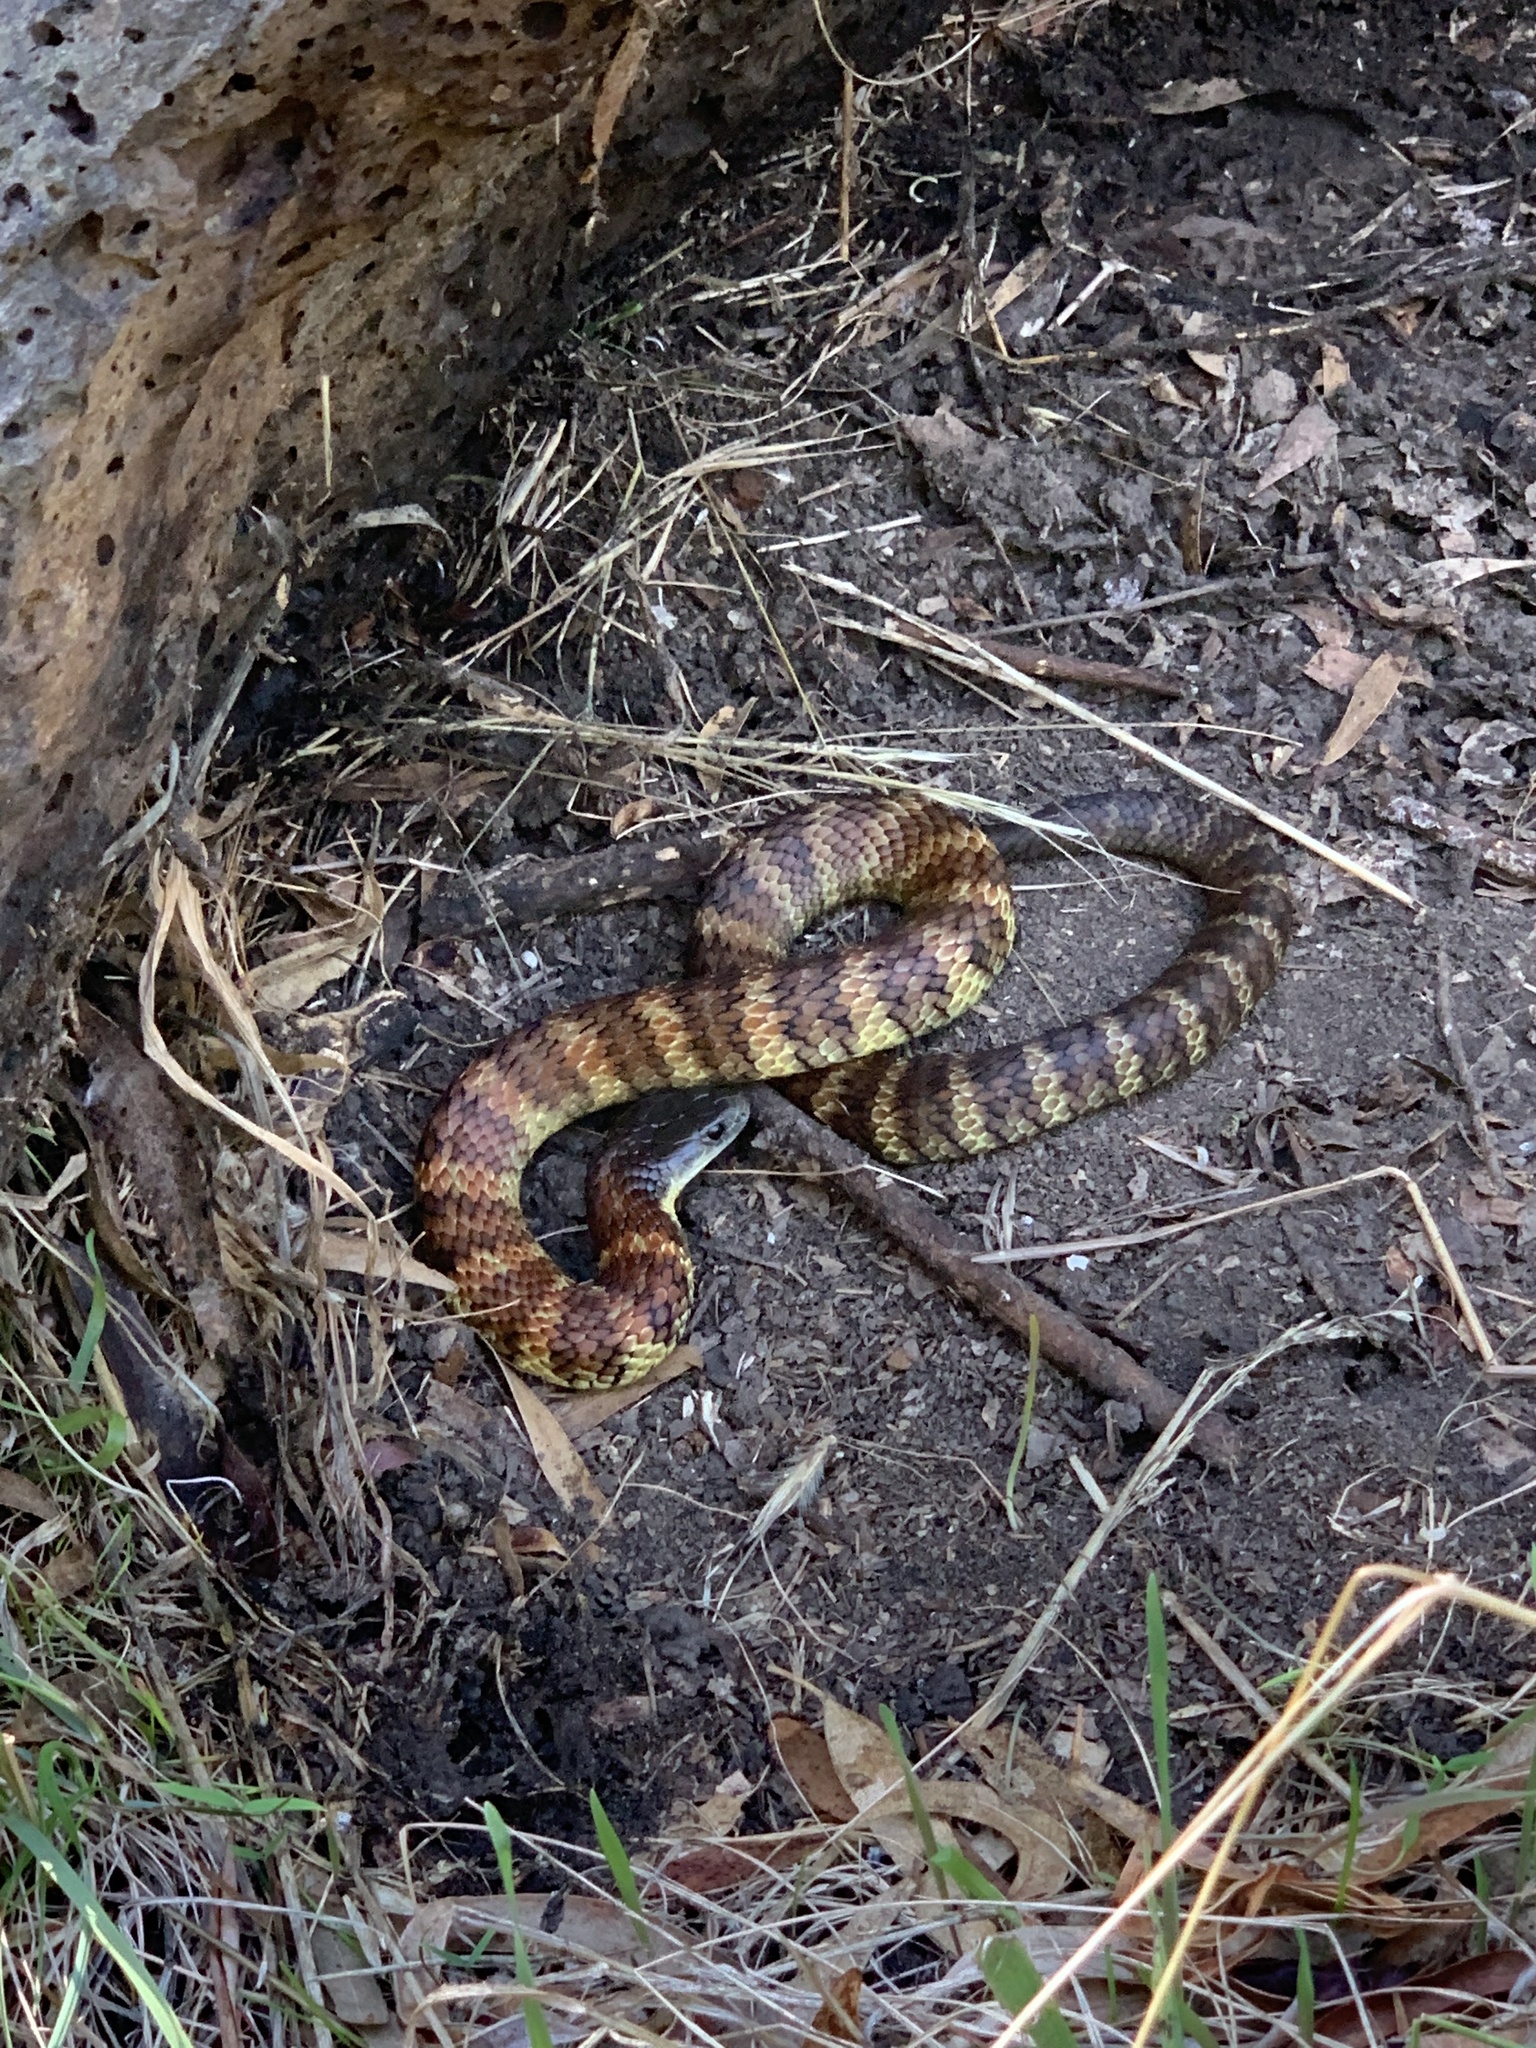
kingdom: Animalia
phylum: Chordata
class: Squamata
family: Elapidae
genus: Notechis
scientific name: Notechis scutatus
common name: Mainland tiger snake
